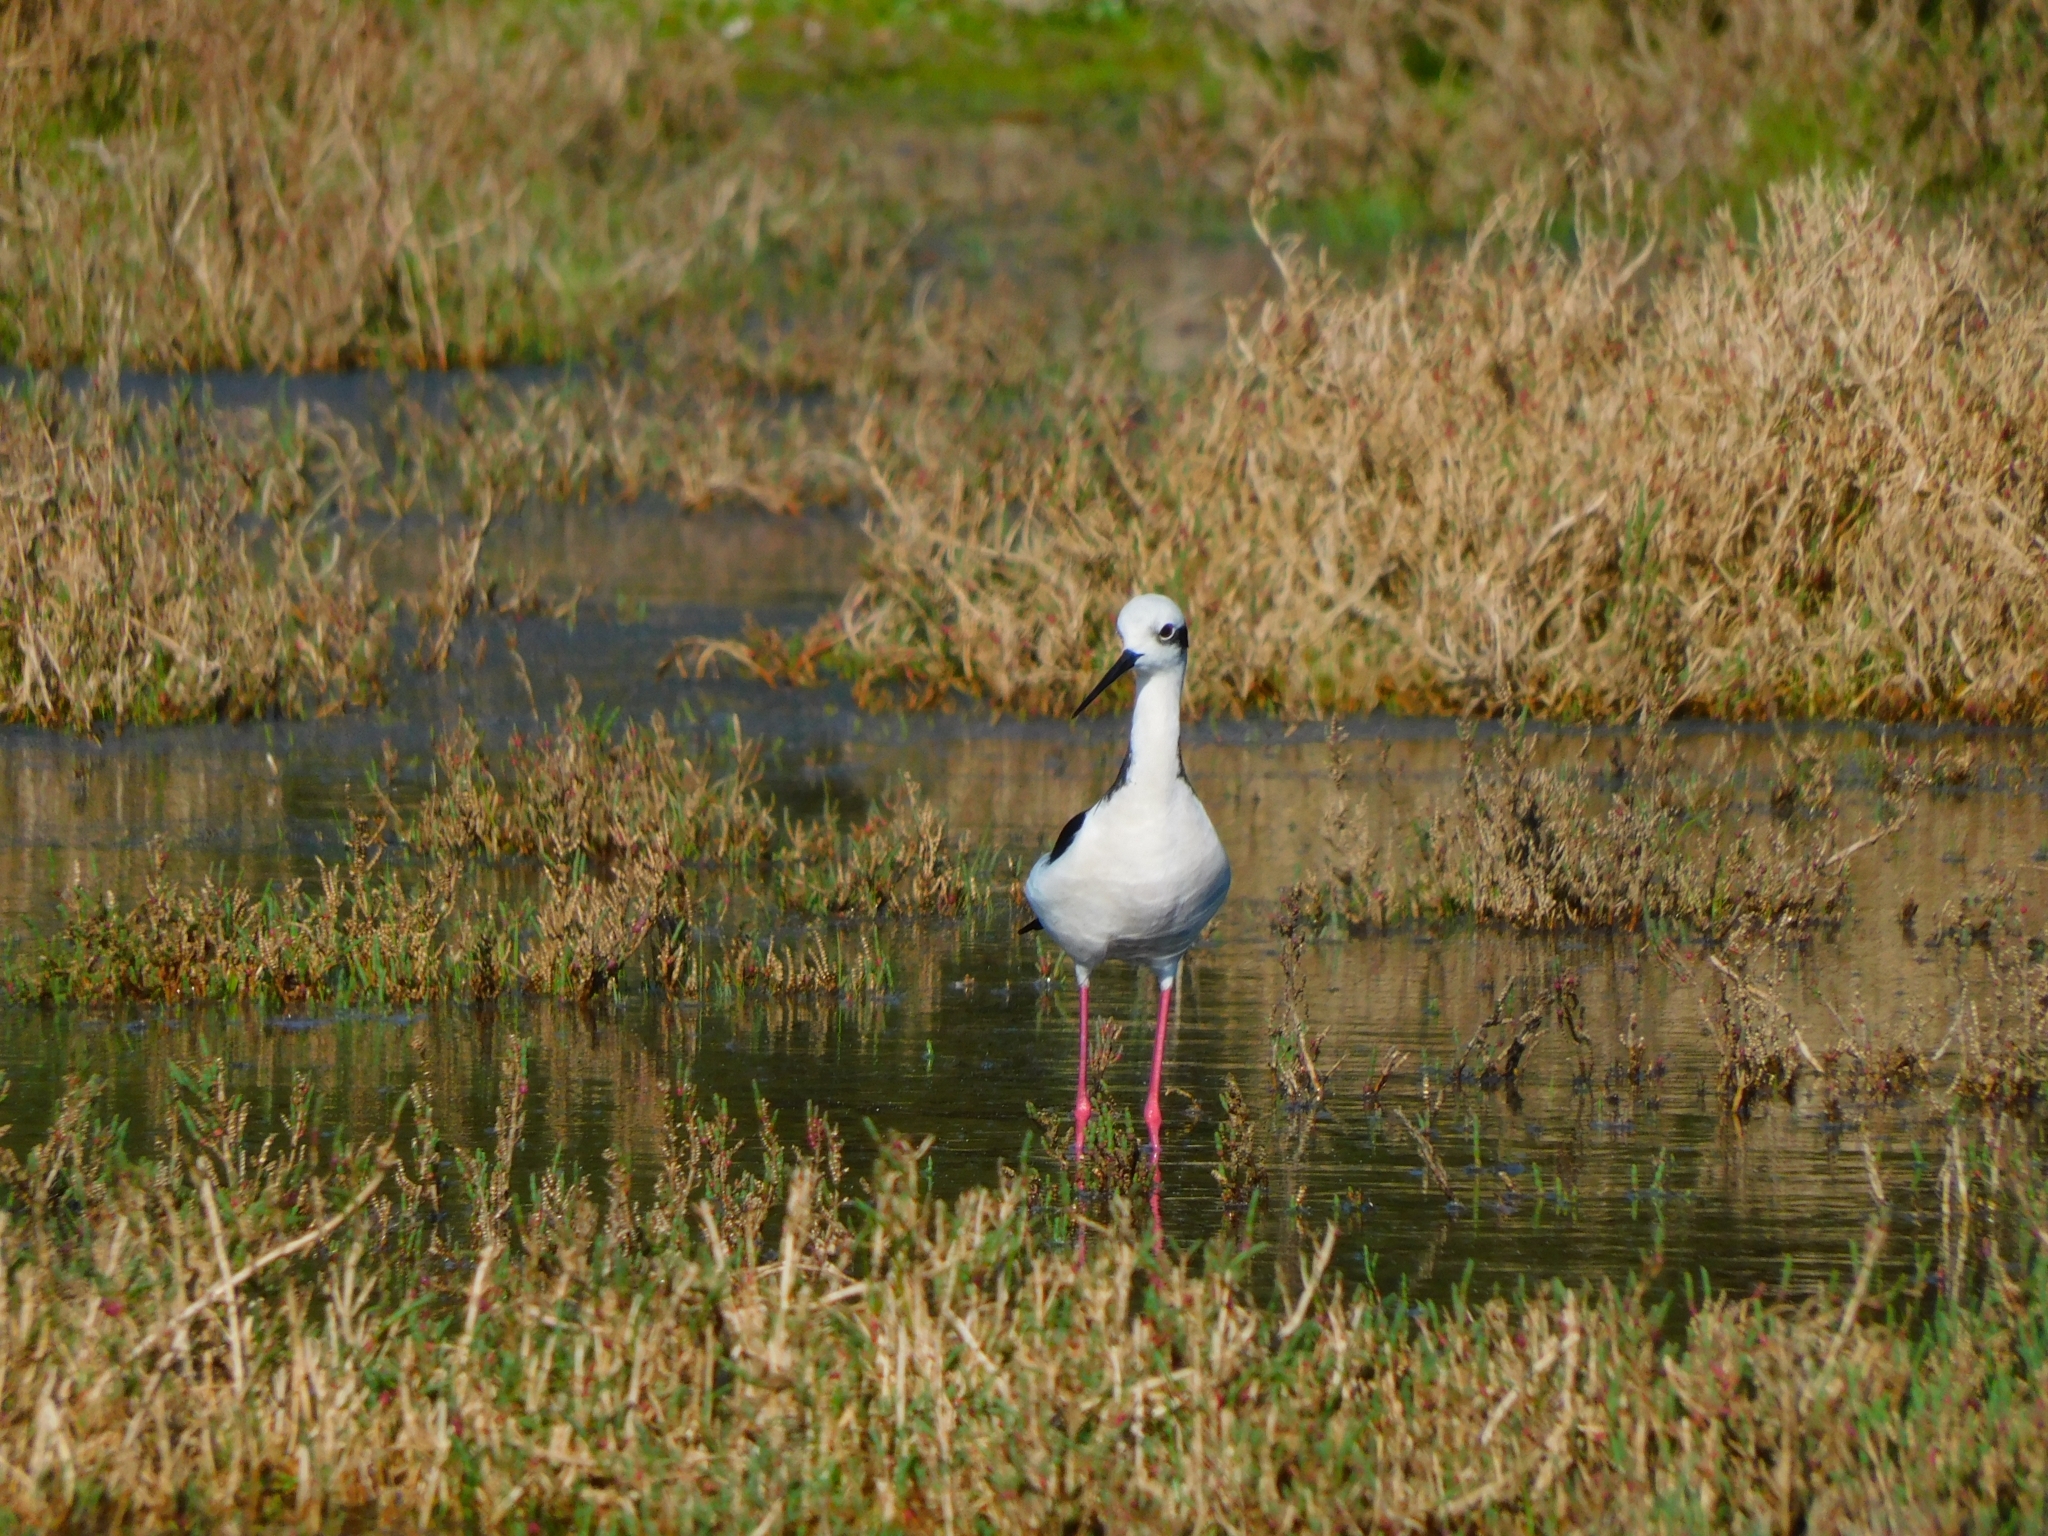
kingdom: Animalia
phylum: Chordata
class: Aves
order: Charadriiformes
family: Recurvirostridae
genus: Himantopus
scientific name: Himantopus mexicanus
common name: Black-necked stilt
